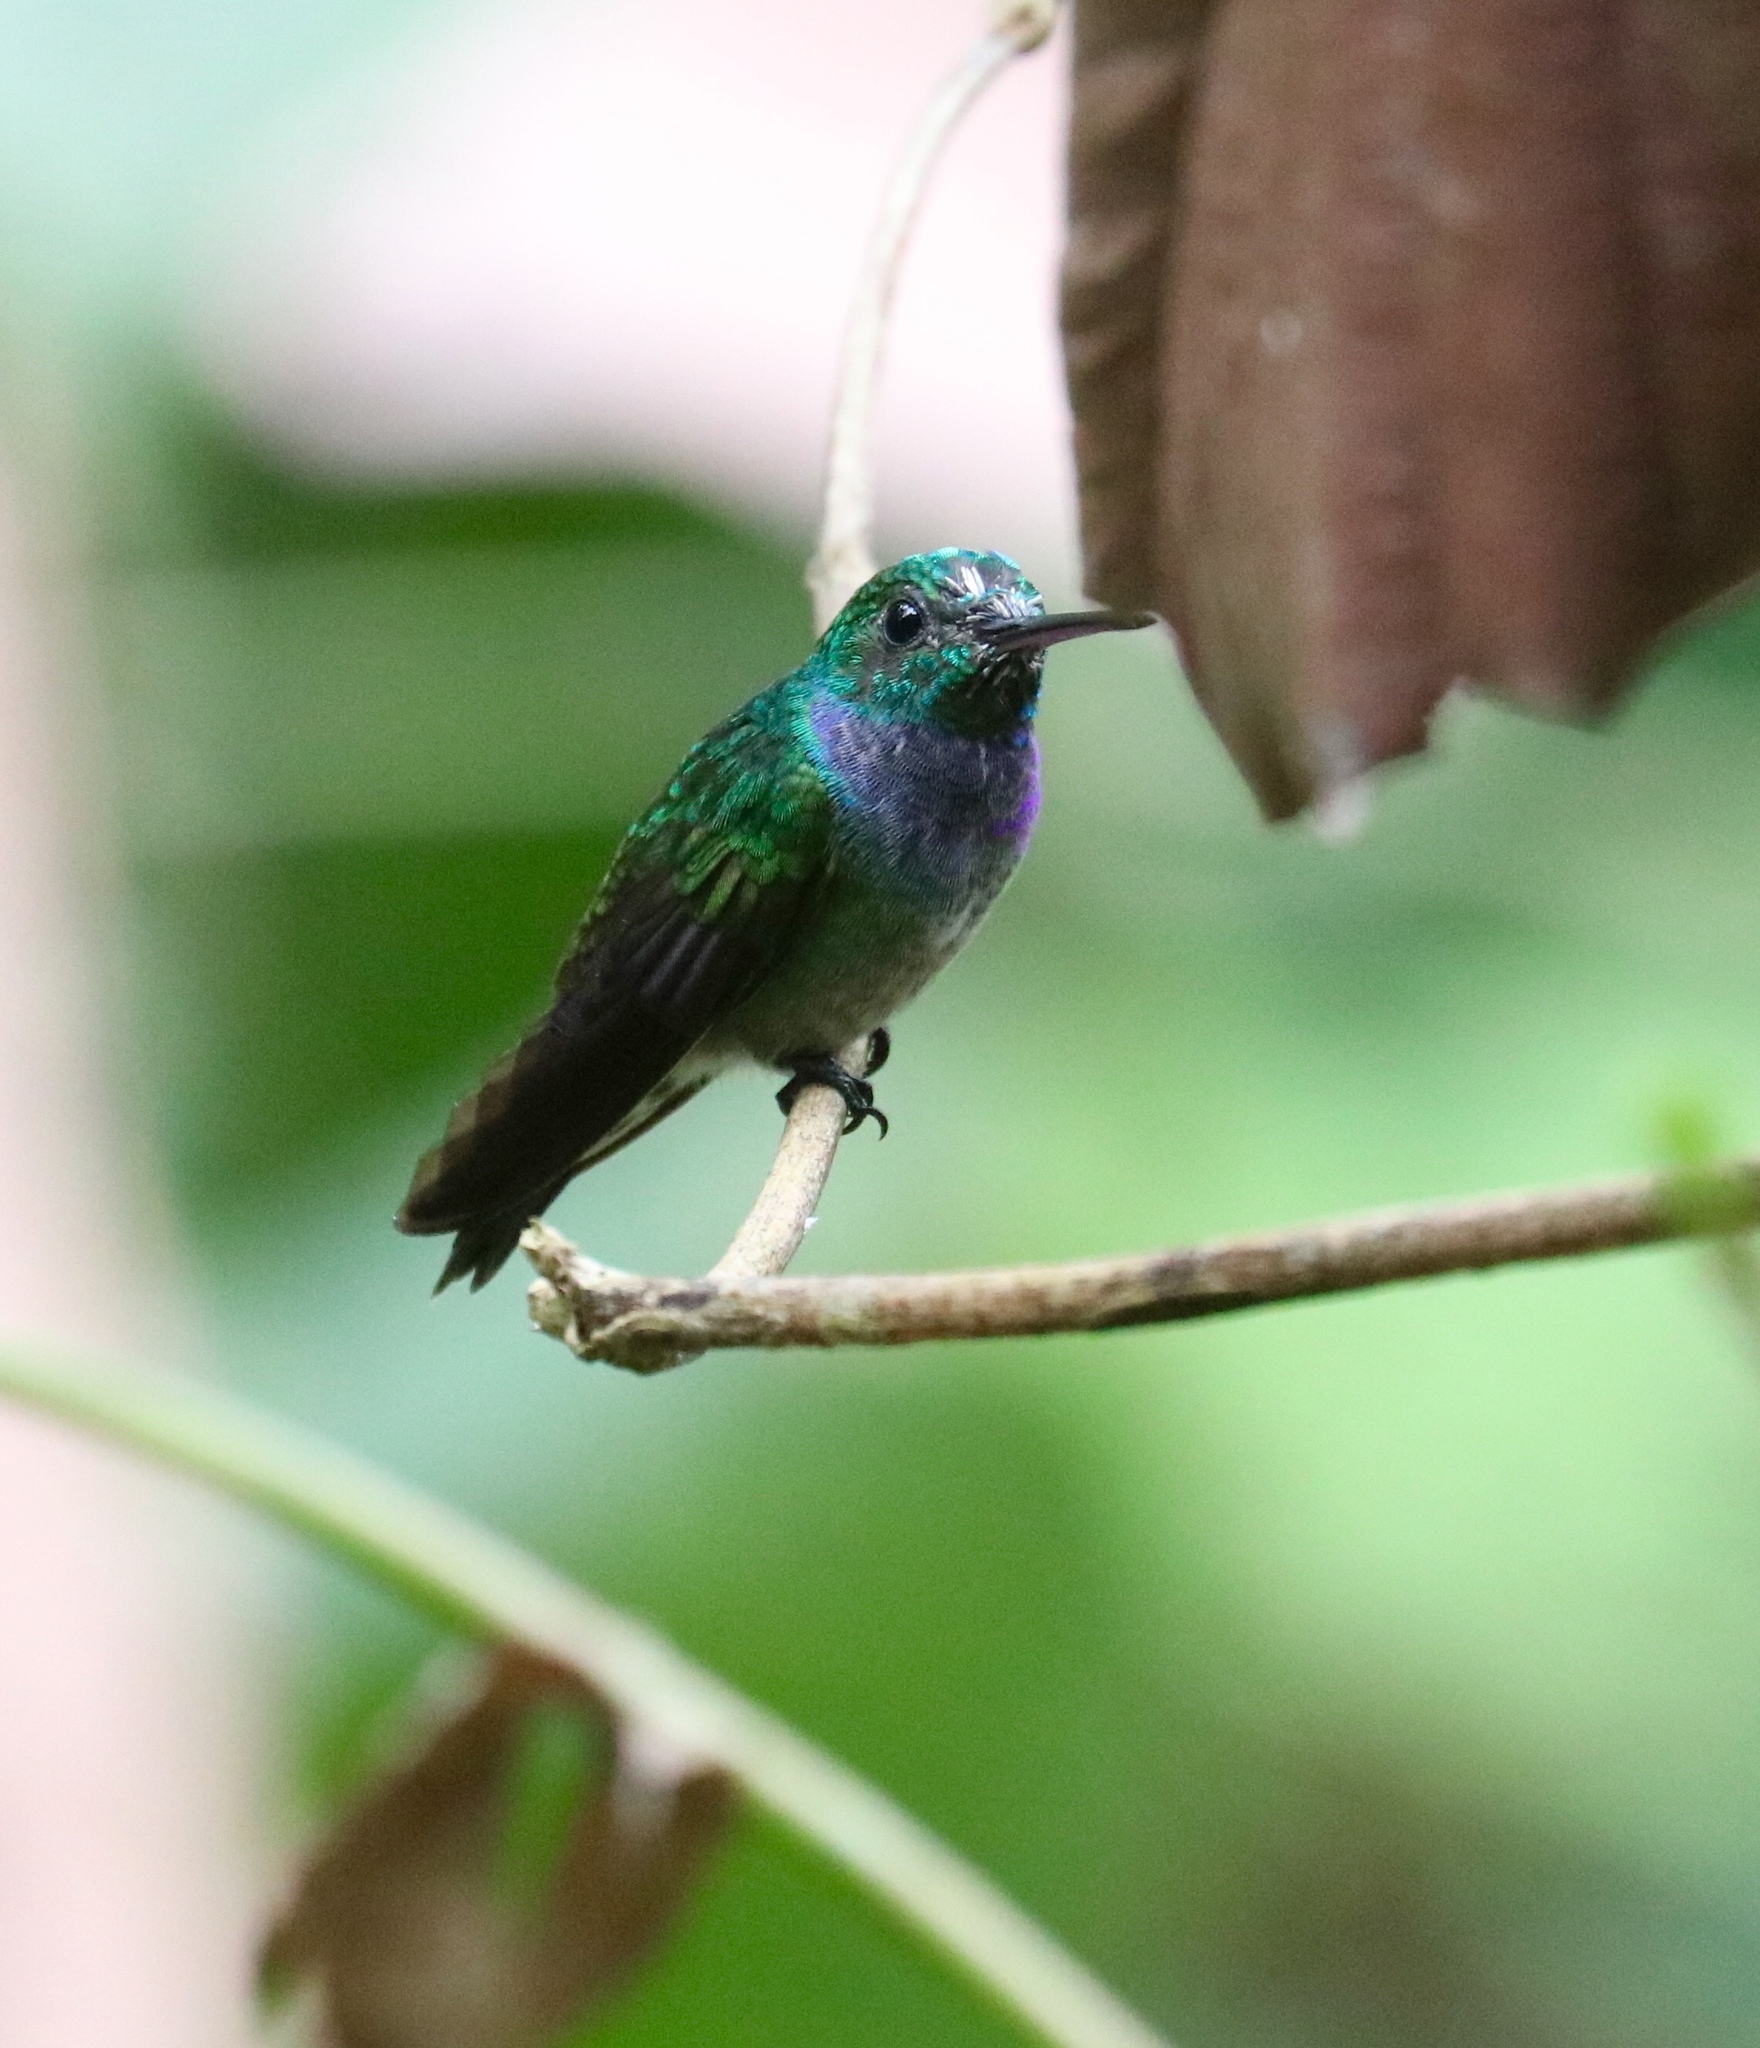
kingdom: Animalia
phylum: Chordata
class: Aves
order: Apodiformes
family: Trochilidae
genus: Polyerata
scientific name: Polyerata amabilis
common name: Blue-chested hummingbird
